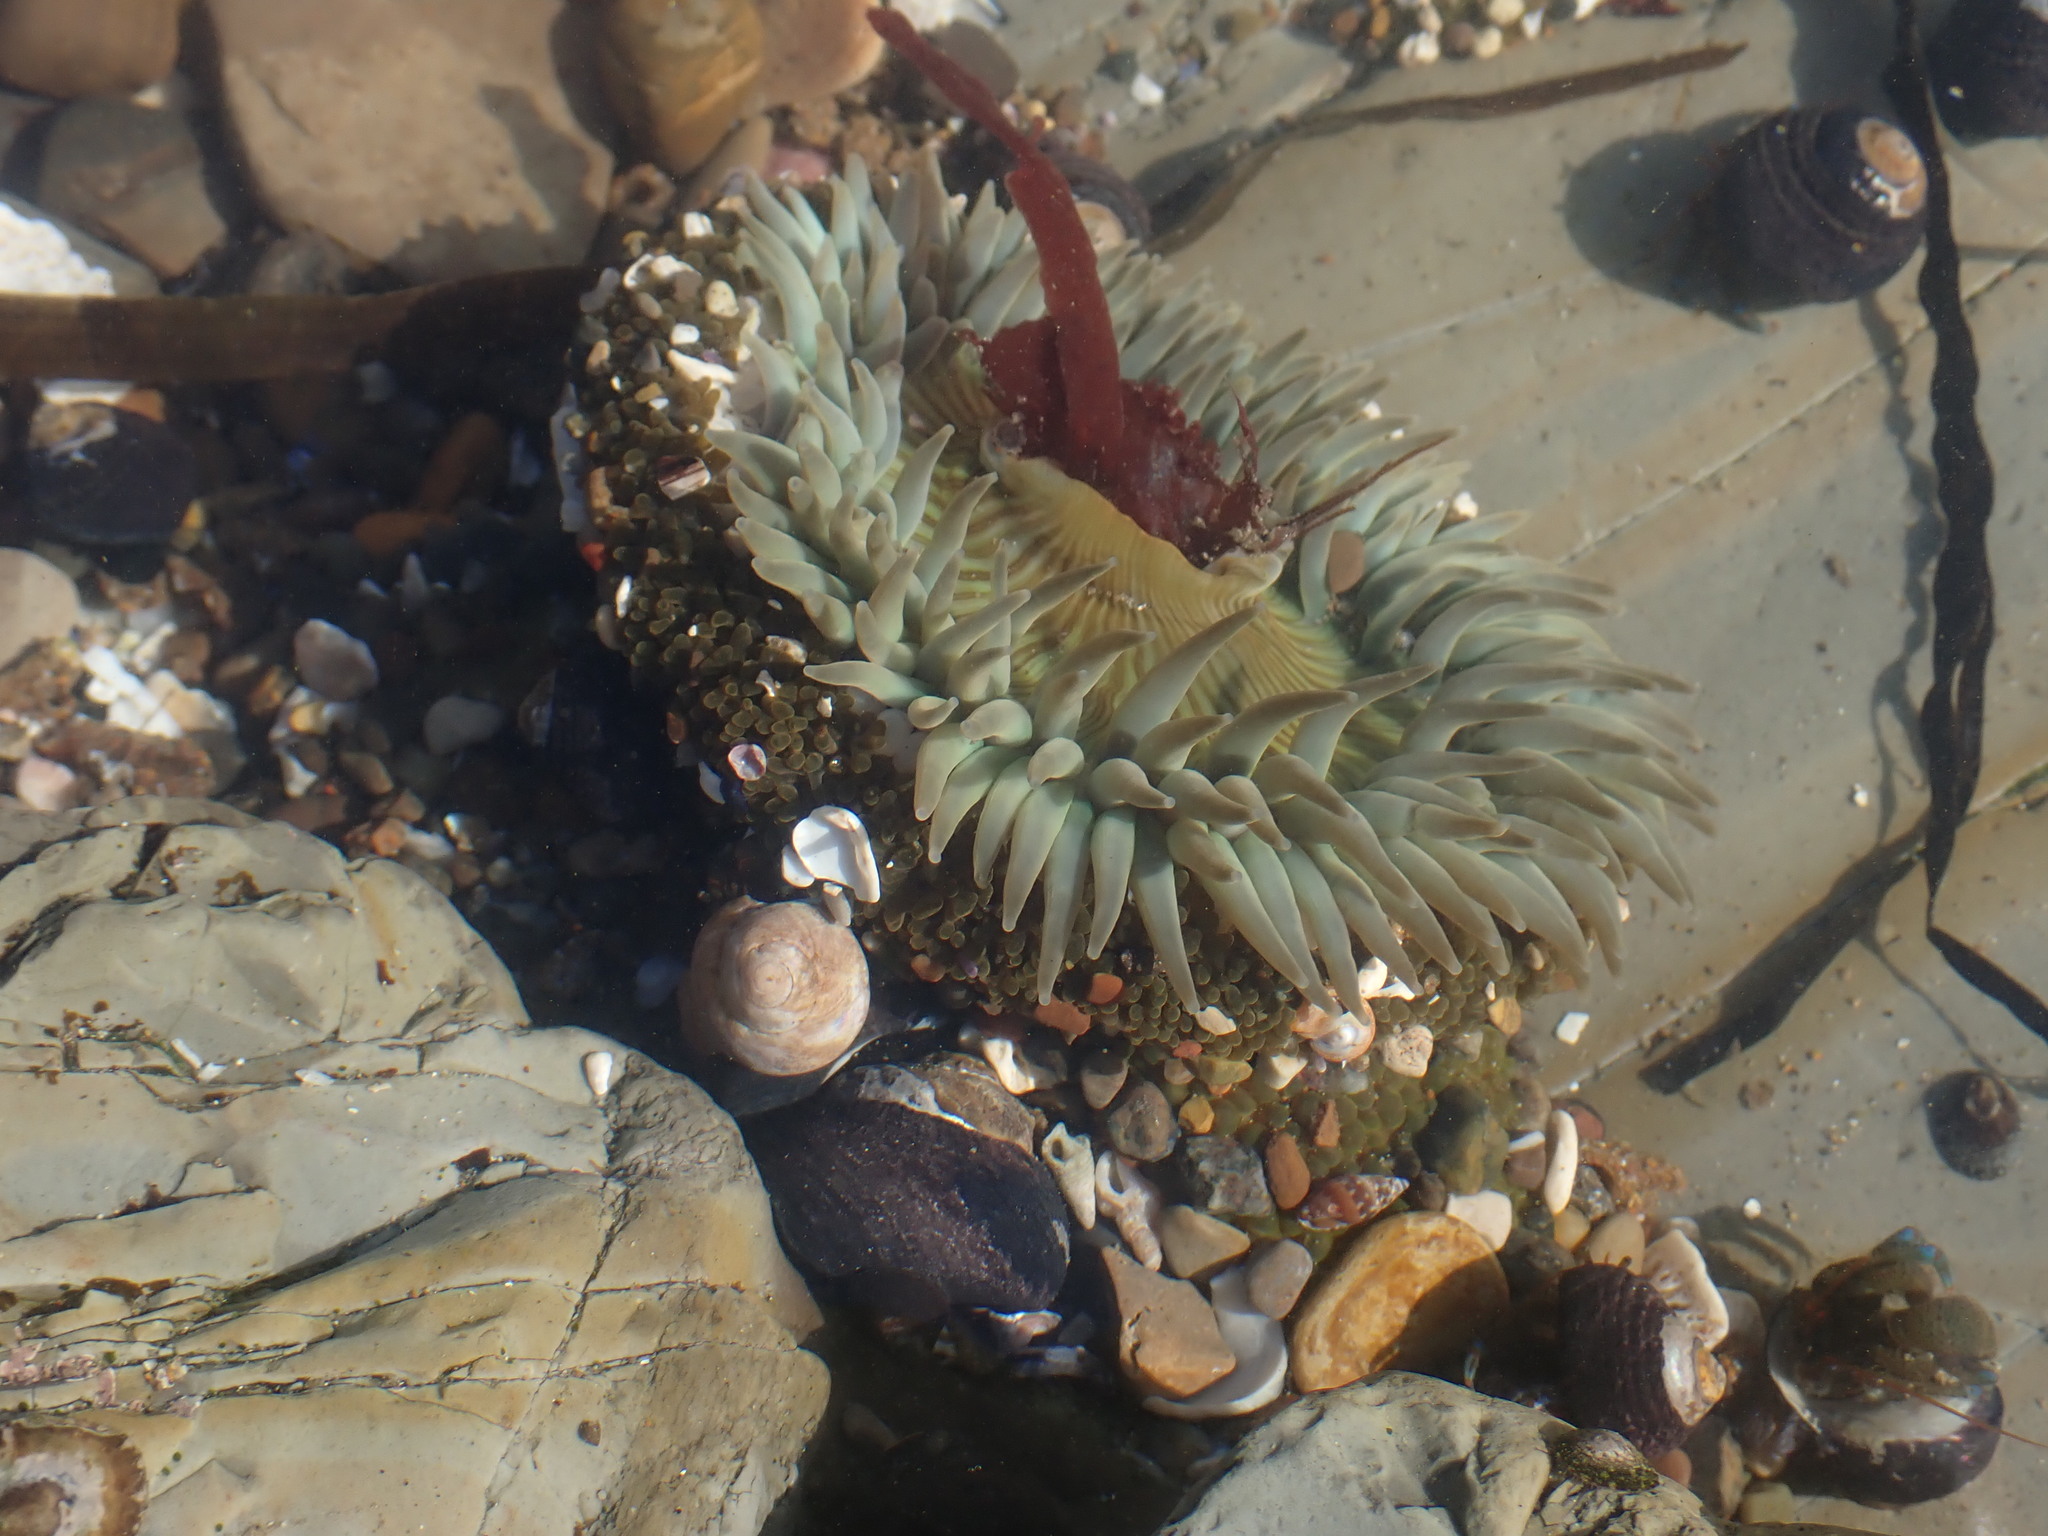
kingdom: Animalia
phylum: Cnidaria
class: Anthozoa
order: Actiniaria
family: Actiniidae
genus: Anthopleura
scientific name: Anthopleura sola
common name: Sun anemone
